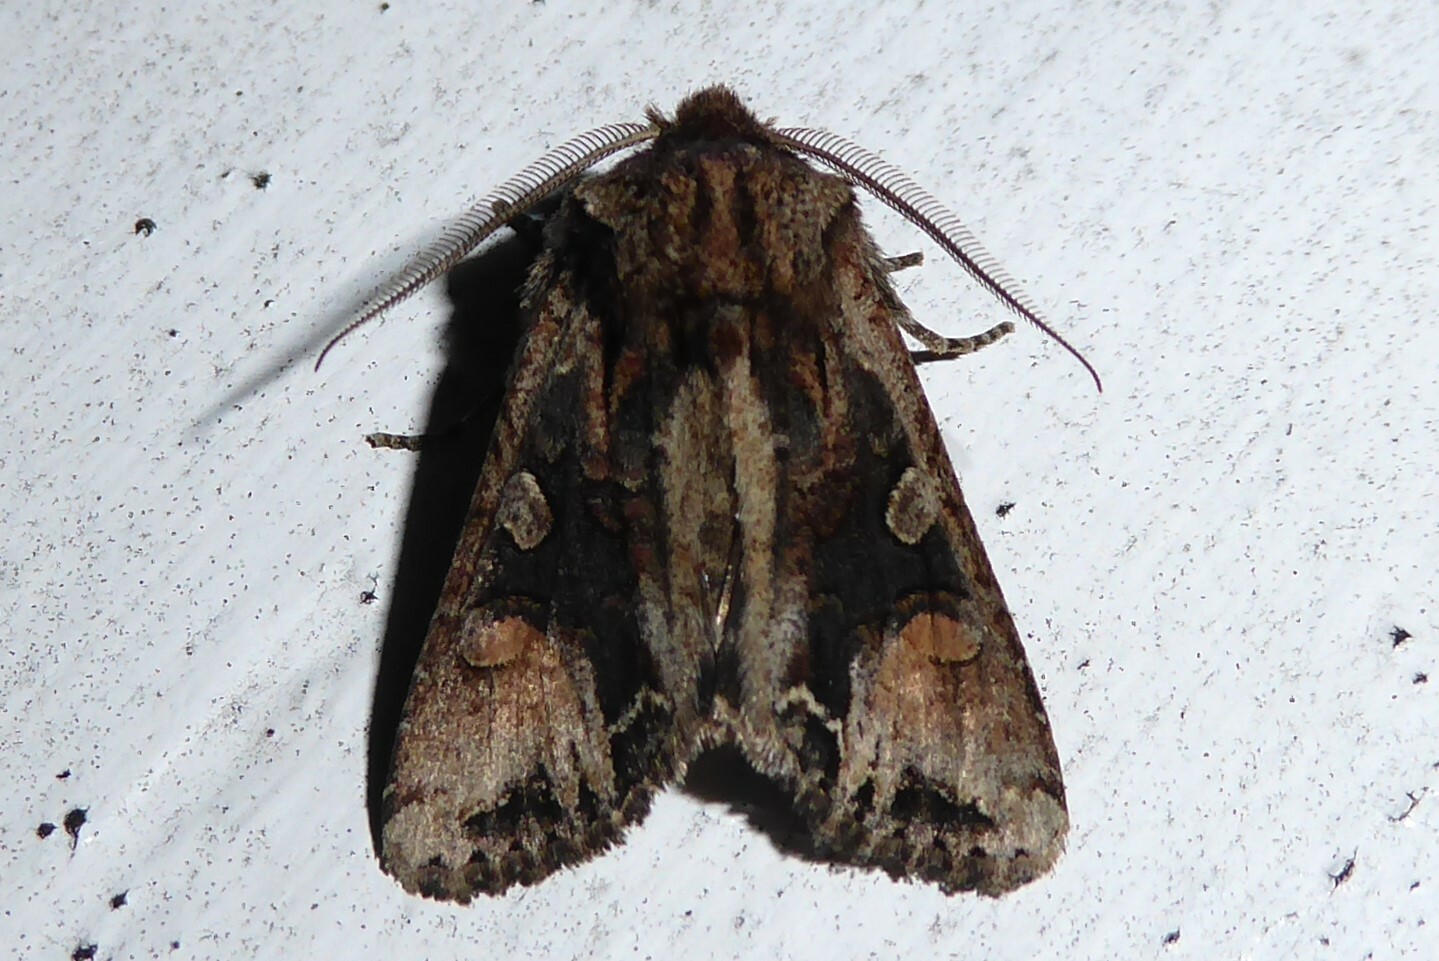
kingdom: Animalia
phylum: Arthropoda
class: Insecta
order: Lepidoptera
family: Noctuidae
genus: Ichneutica
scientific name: Ichneutica
